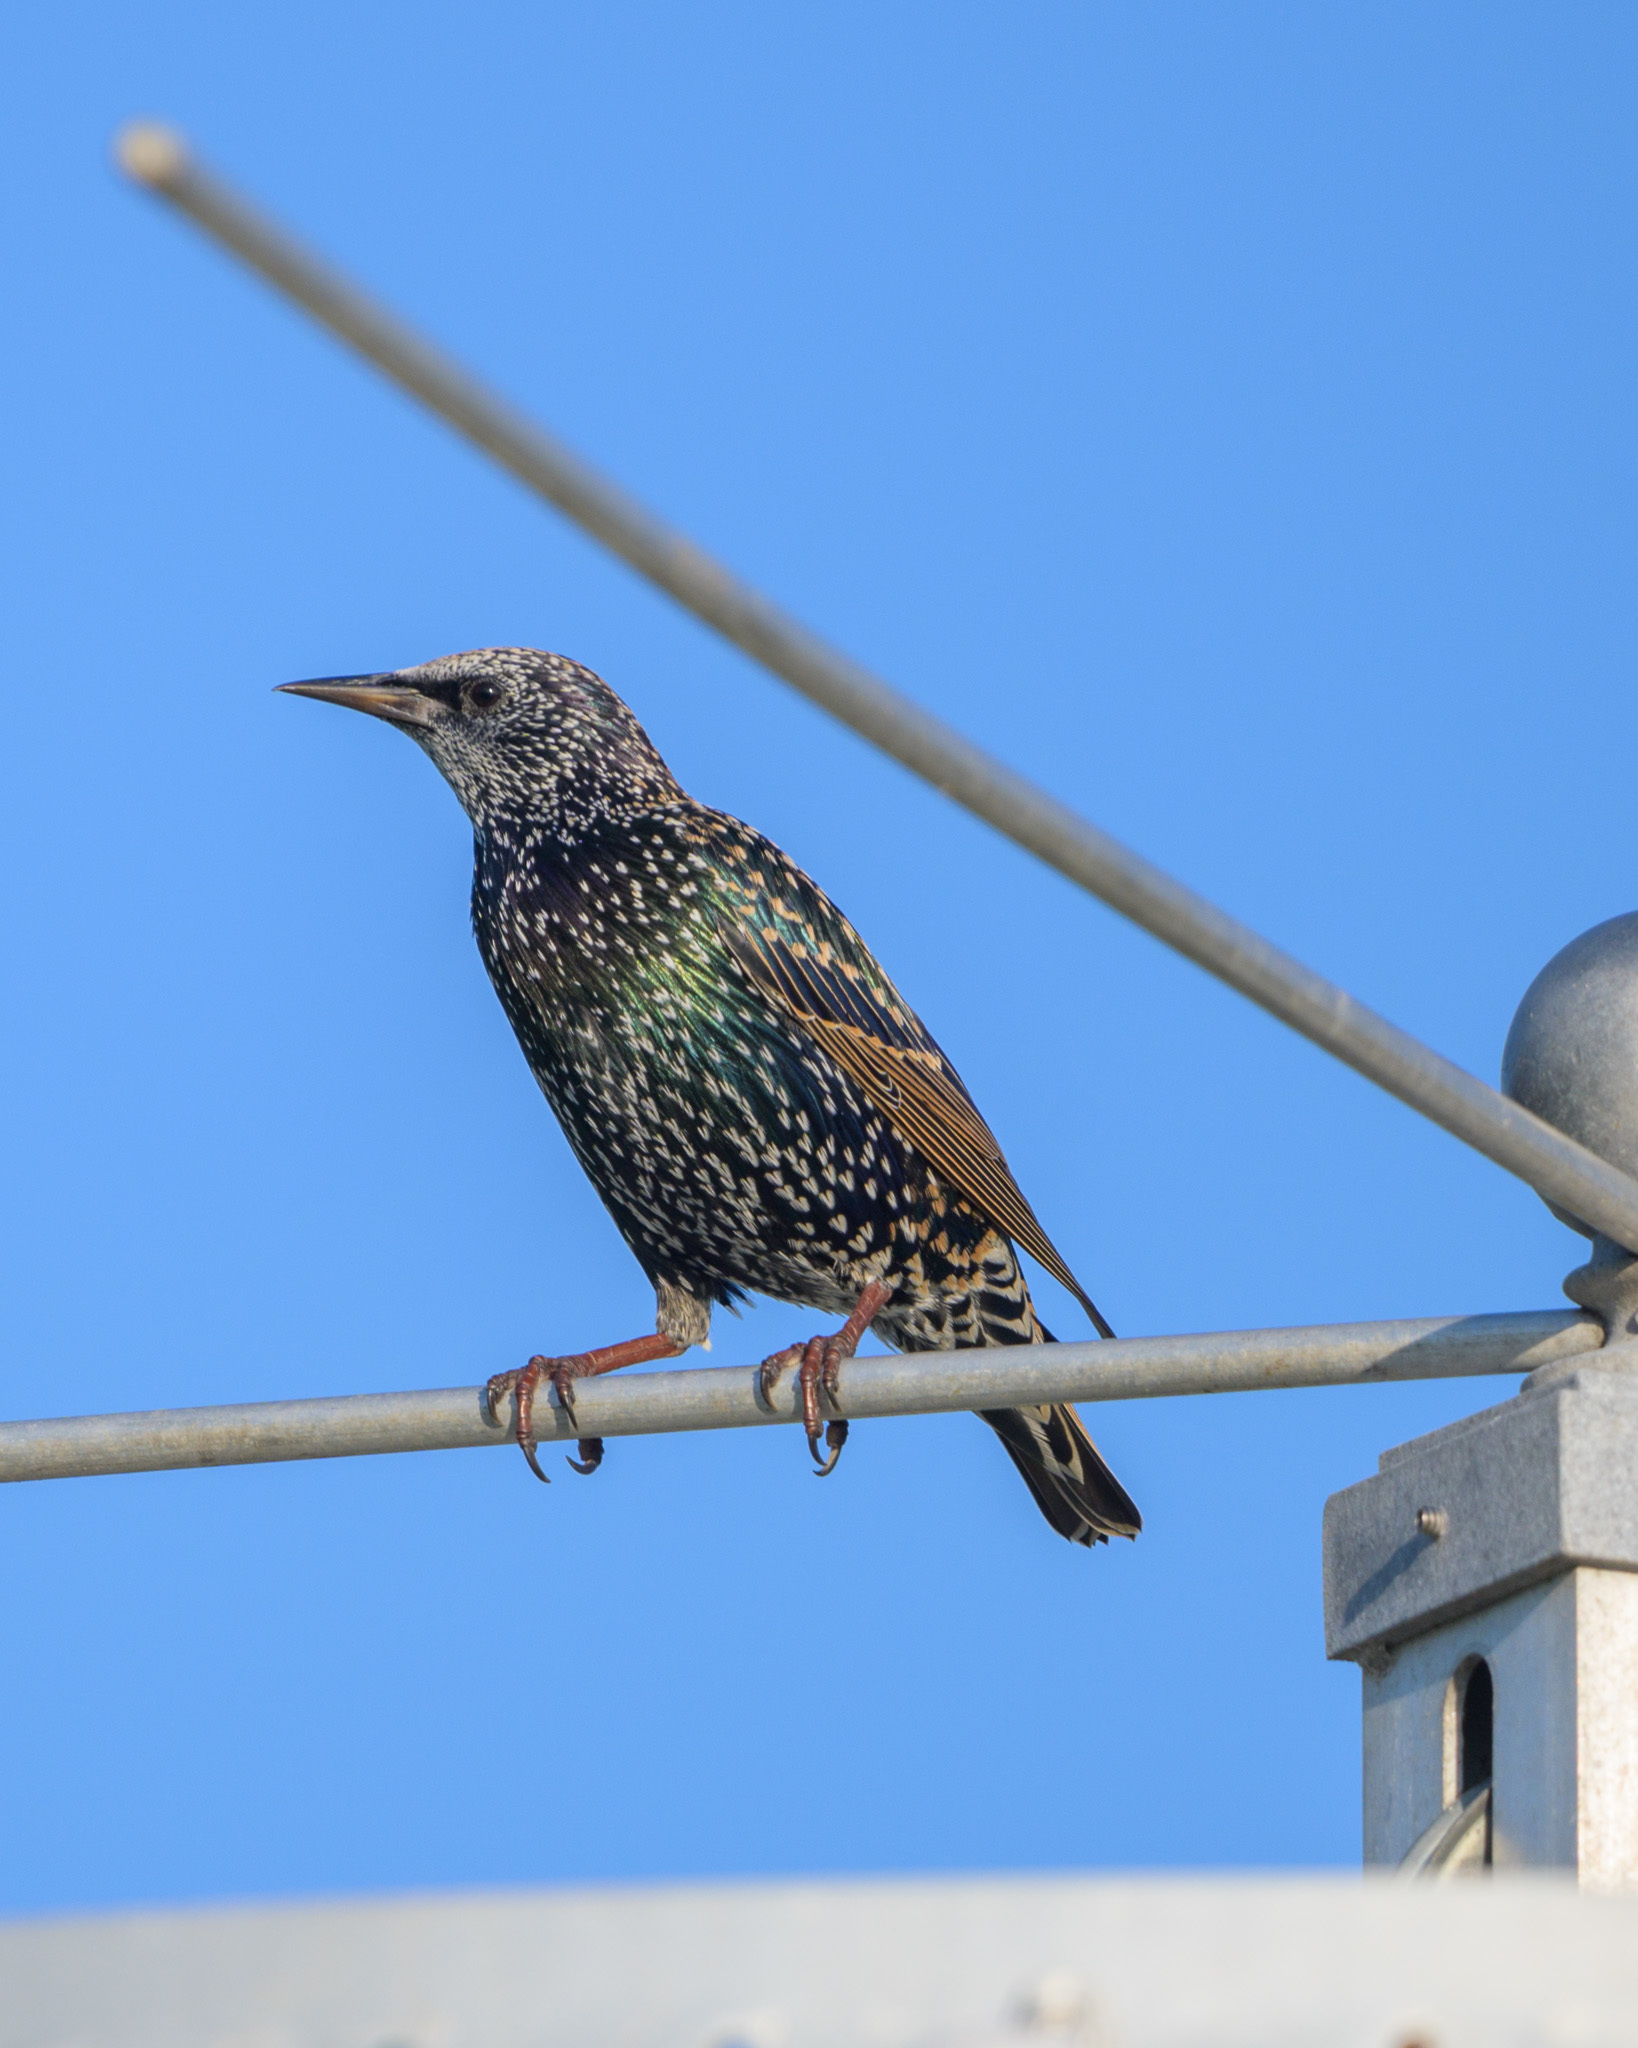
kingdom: Animalia
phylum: Chordata
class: Aves
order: Passeriformes
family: Sturnidae
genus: Sturnus
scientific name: Sturnus vulgaris
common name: Common starling
